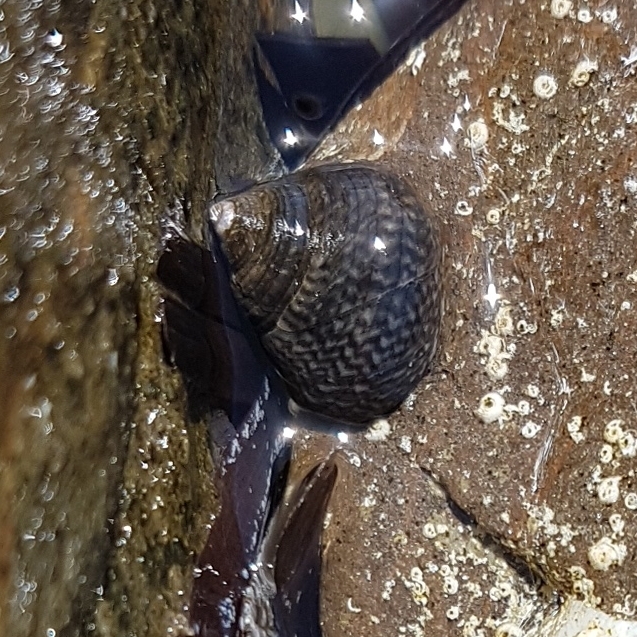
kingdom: Animalia
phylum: Mollusca
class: Gastropoda
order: Trochida
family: Trochidae
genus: Phorcus
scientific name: Phorcus articulatus
